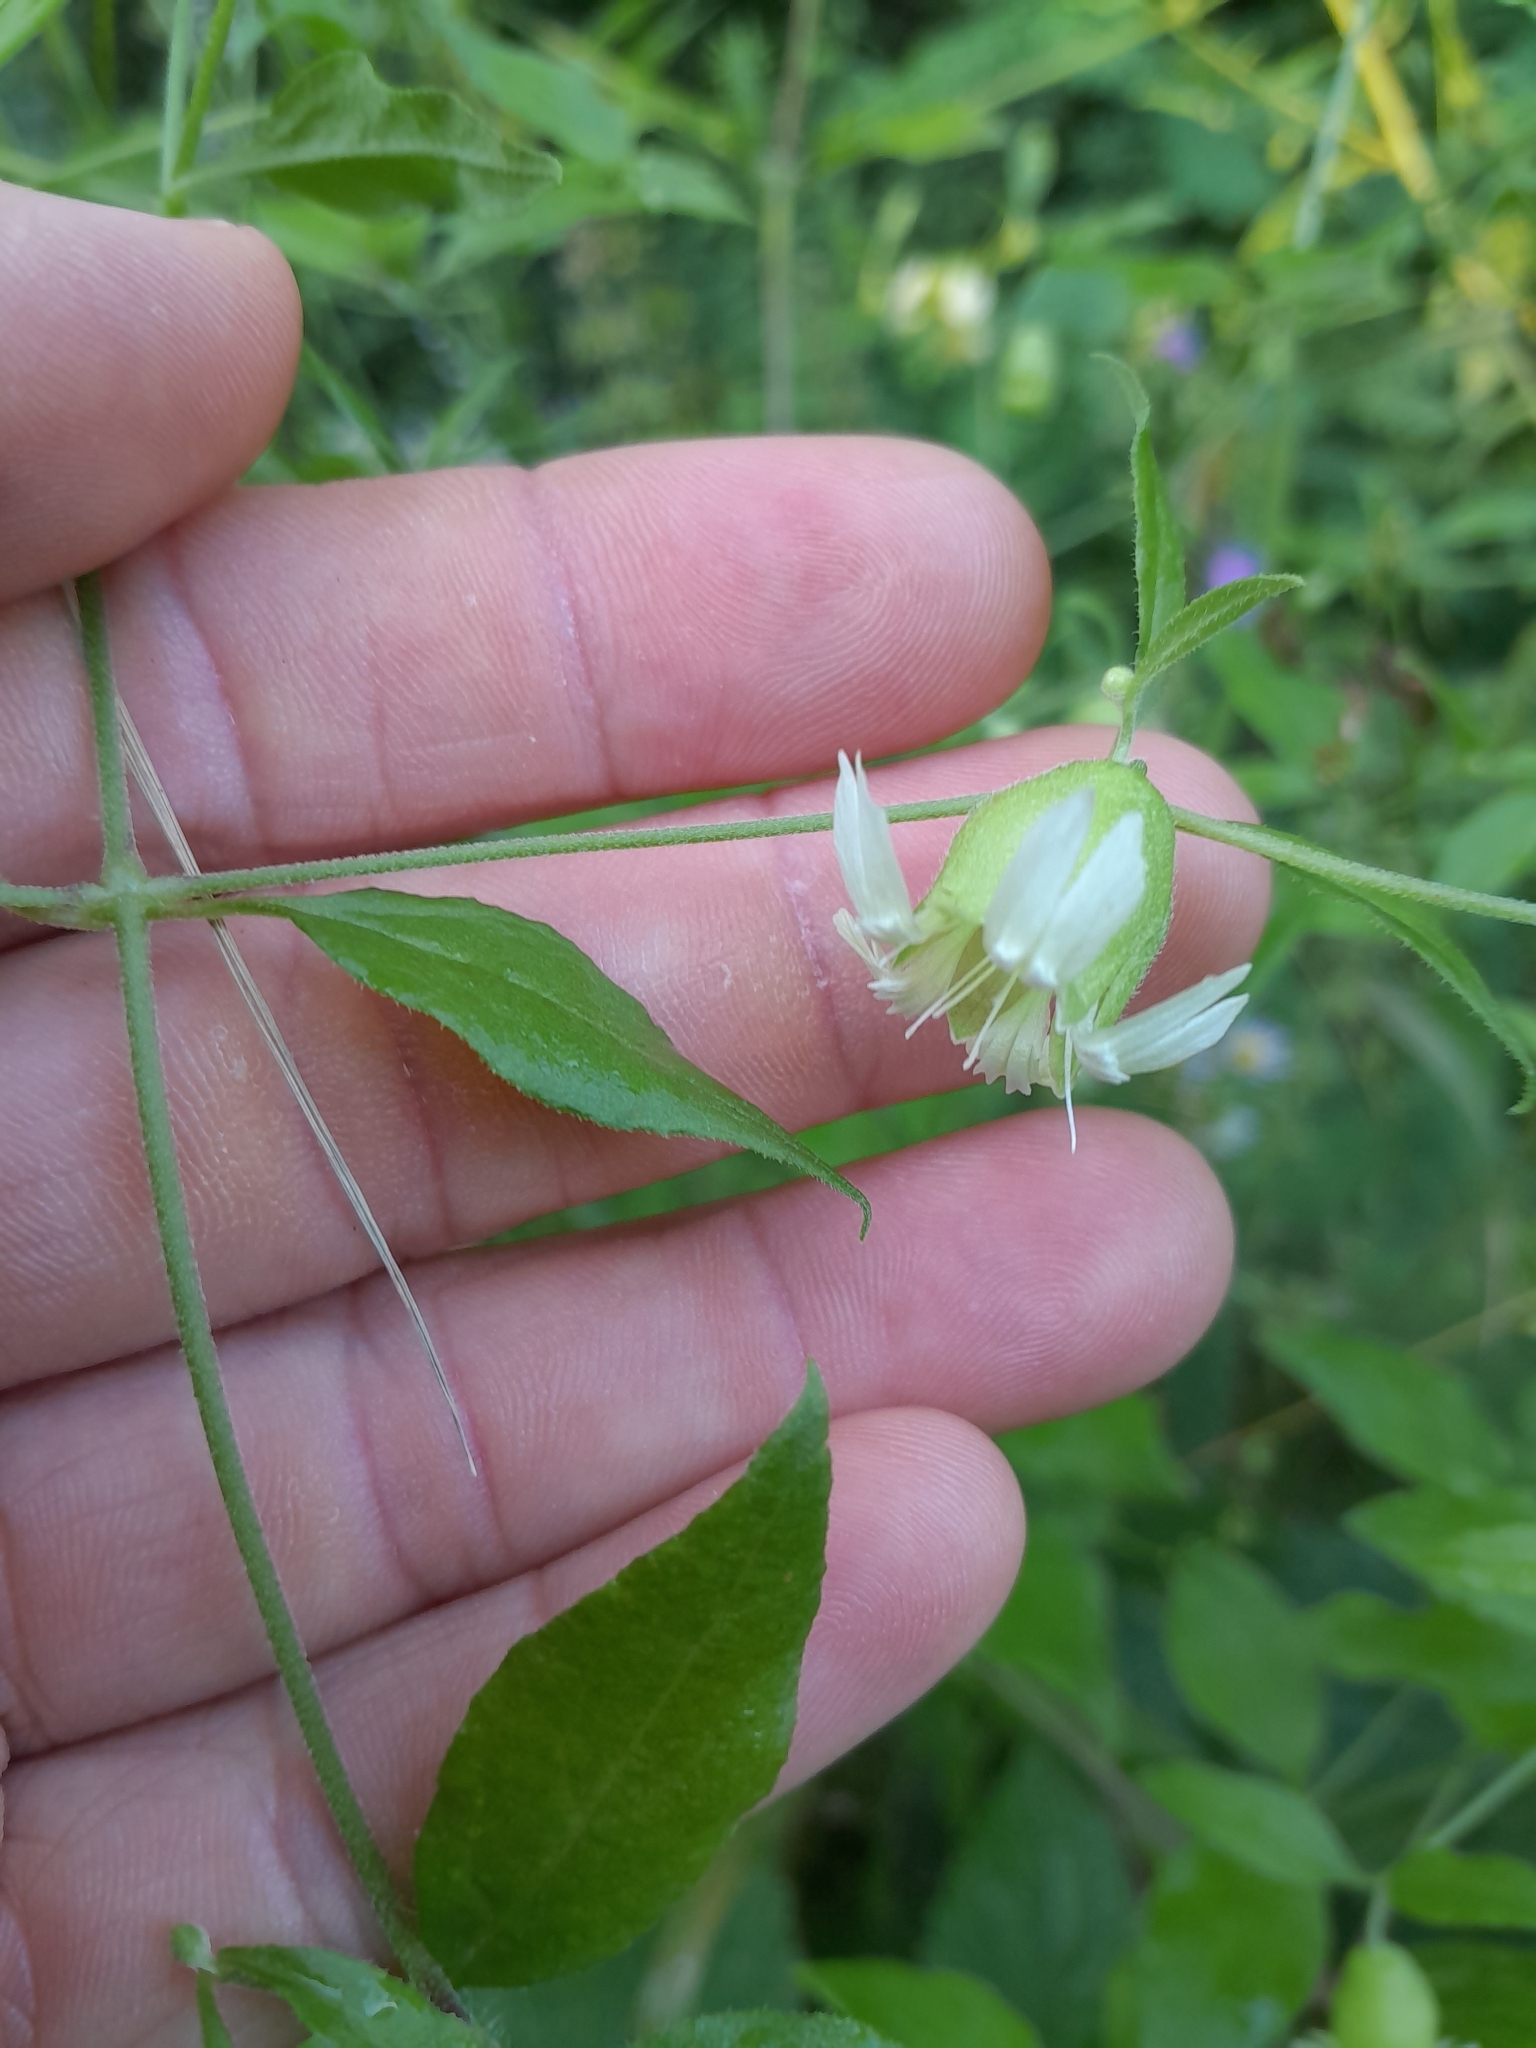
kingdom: Plantae
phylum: Tracheophyta
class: Magnoliopsida
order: Caryophyllales
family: Caryophyllaceae
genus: Silene
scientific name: Silene baccifera
